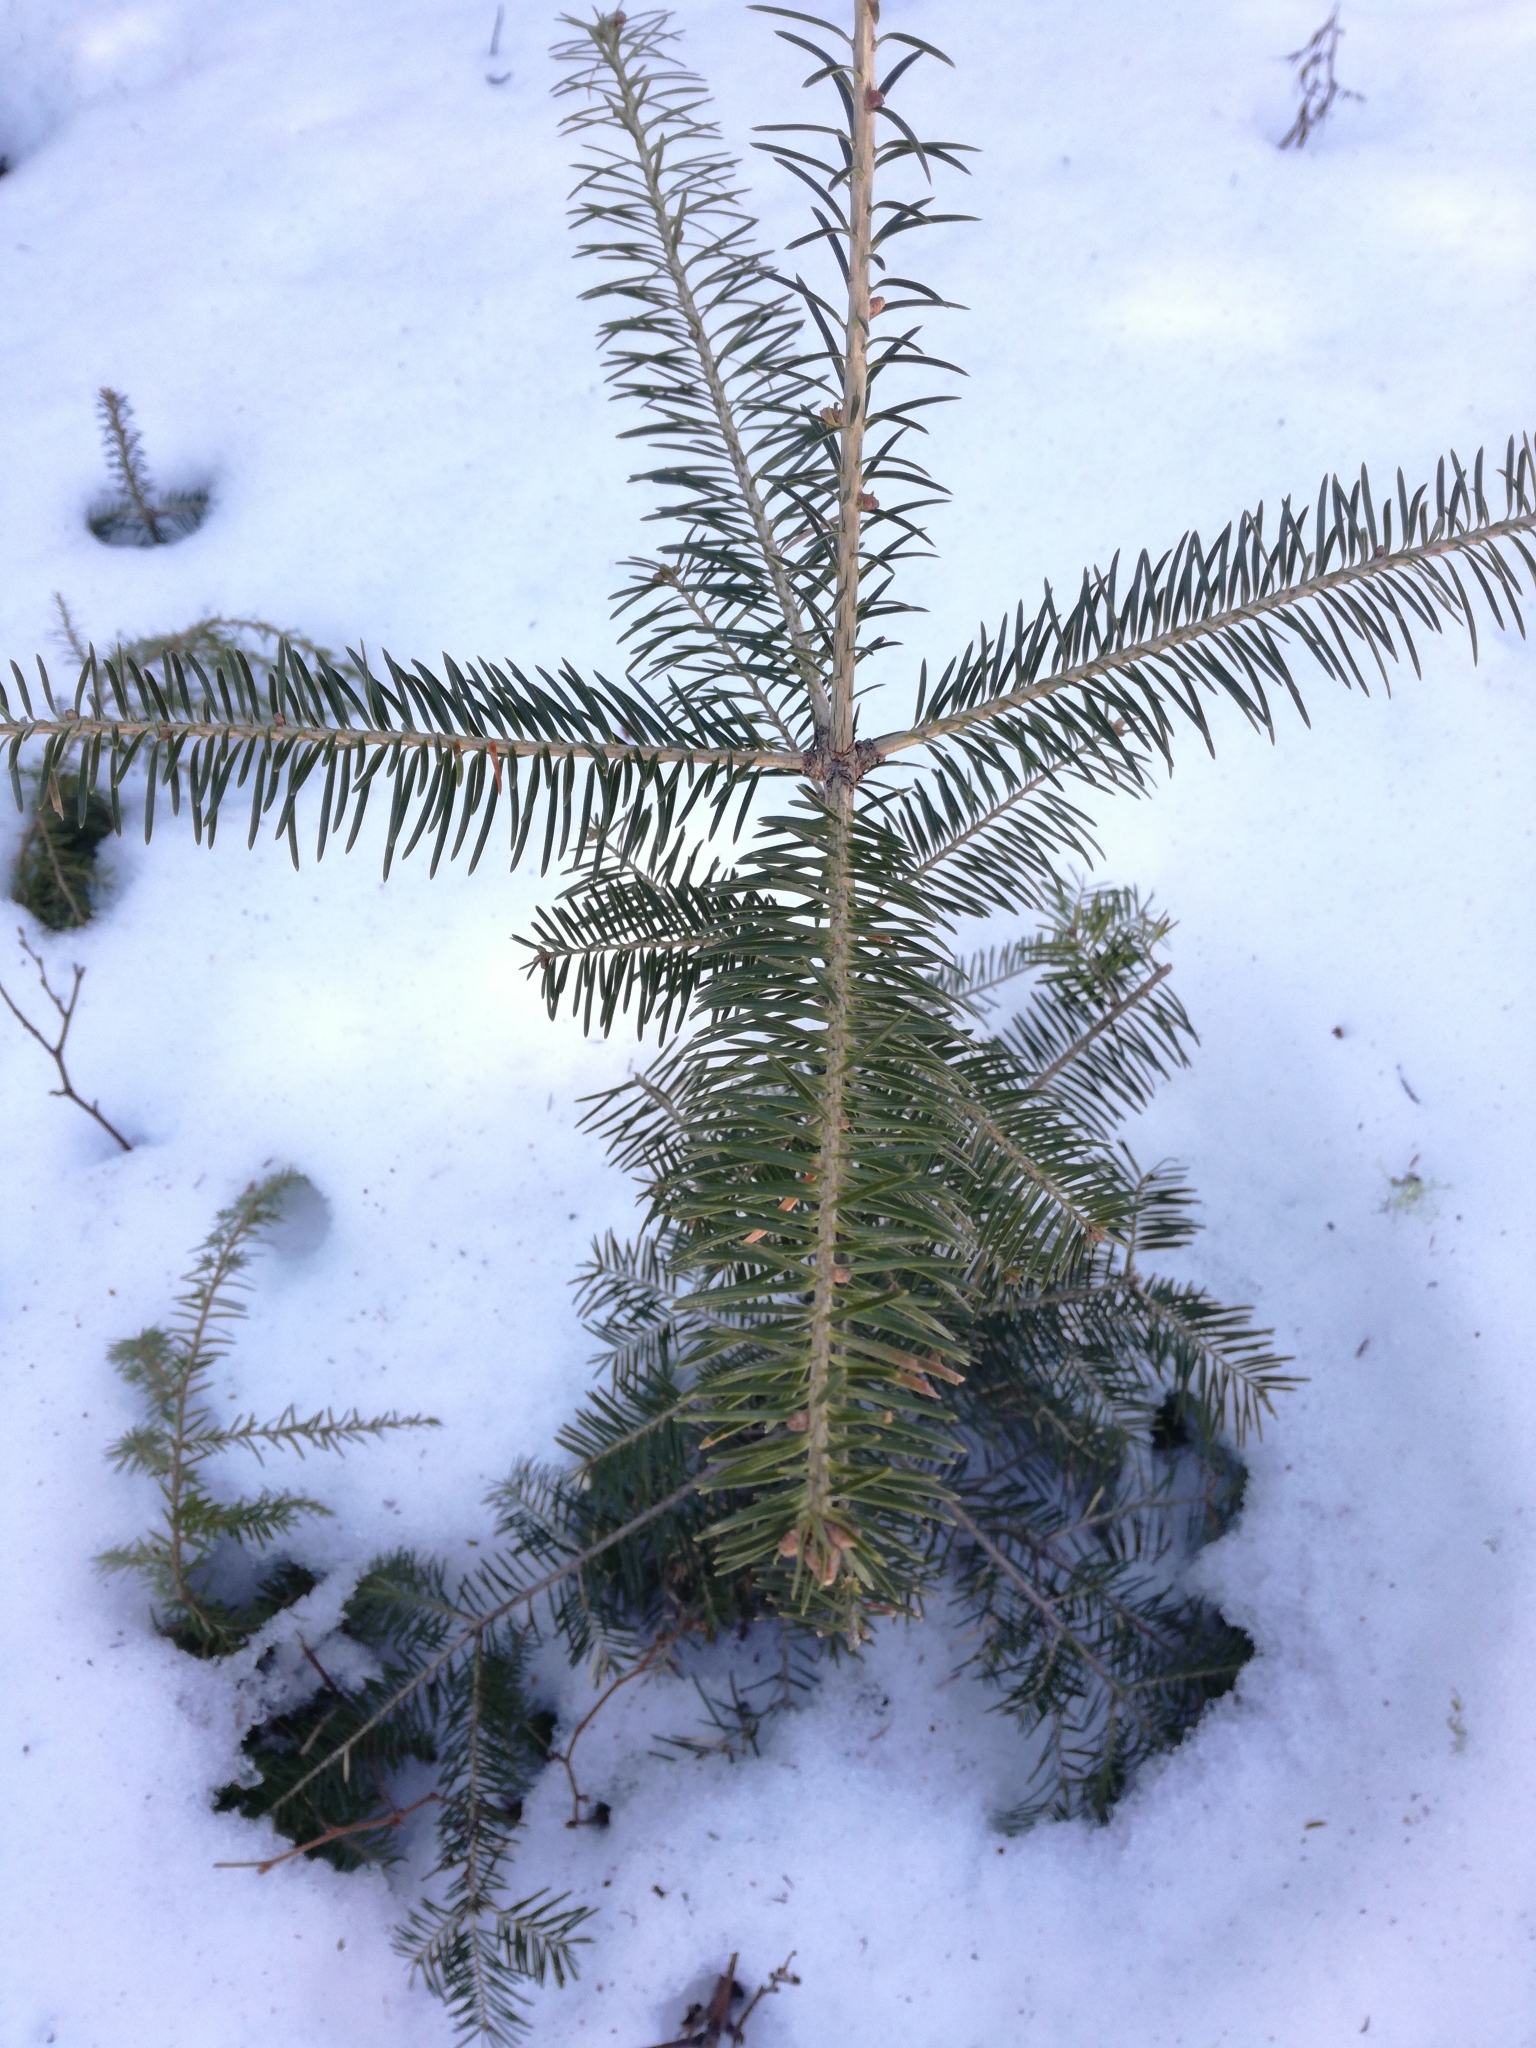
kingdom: Plantae
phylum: Tracheophyta
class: Pinopsida
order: Pinales
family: Pinaceae
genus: Abies
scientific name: Abies balsamea
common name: Balsam fir
